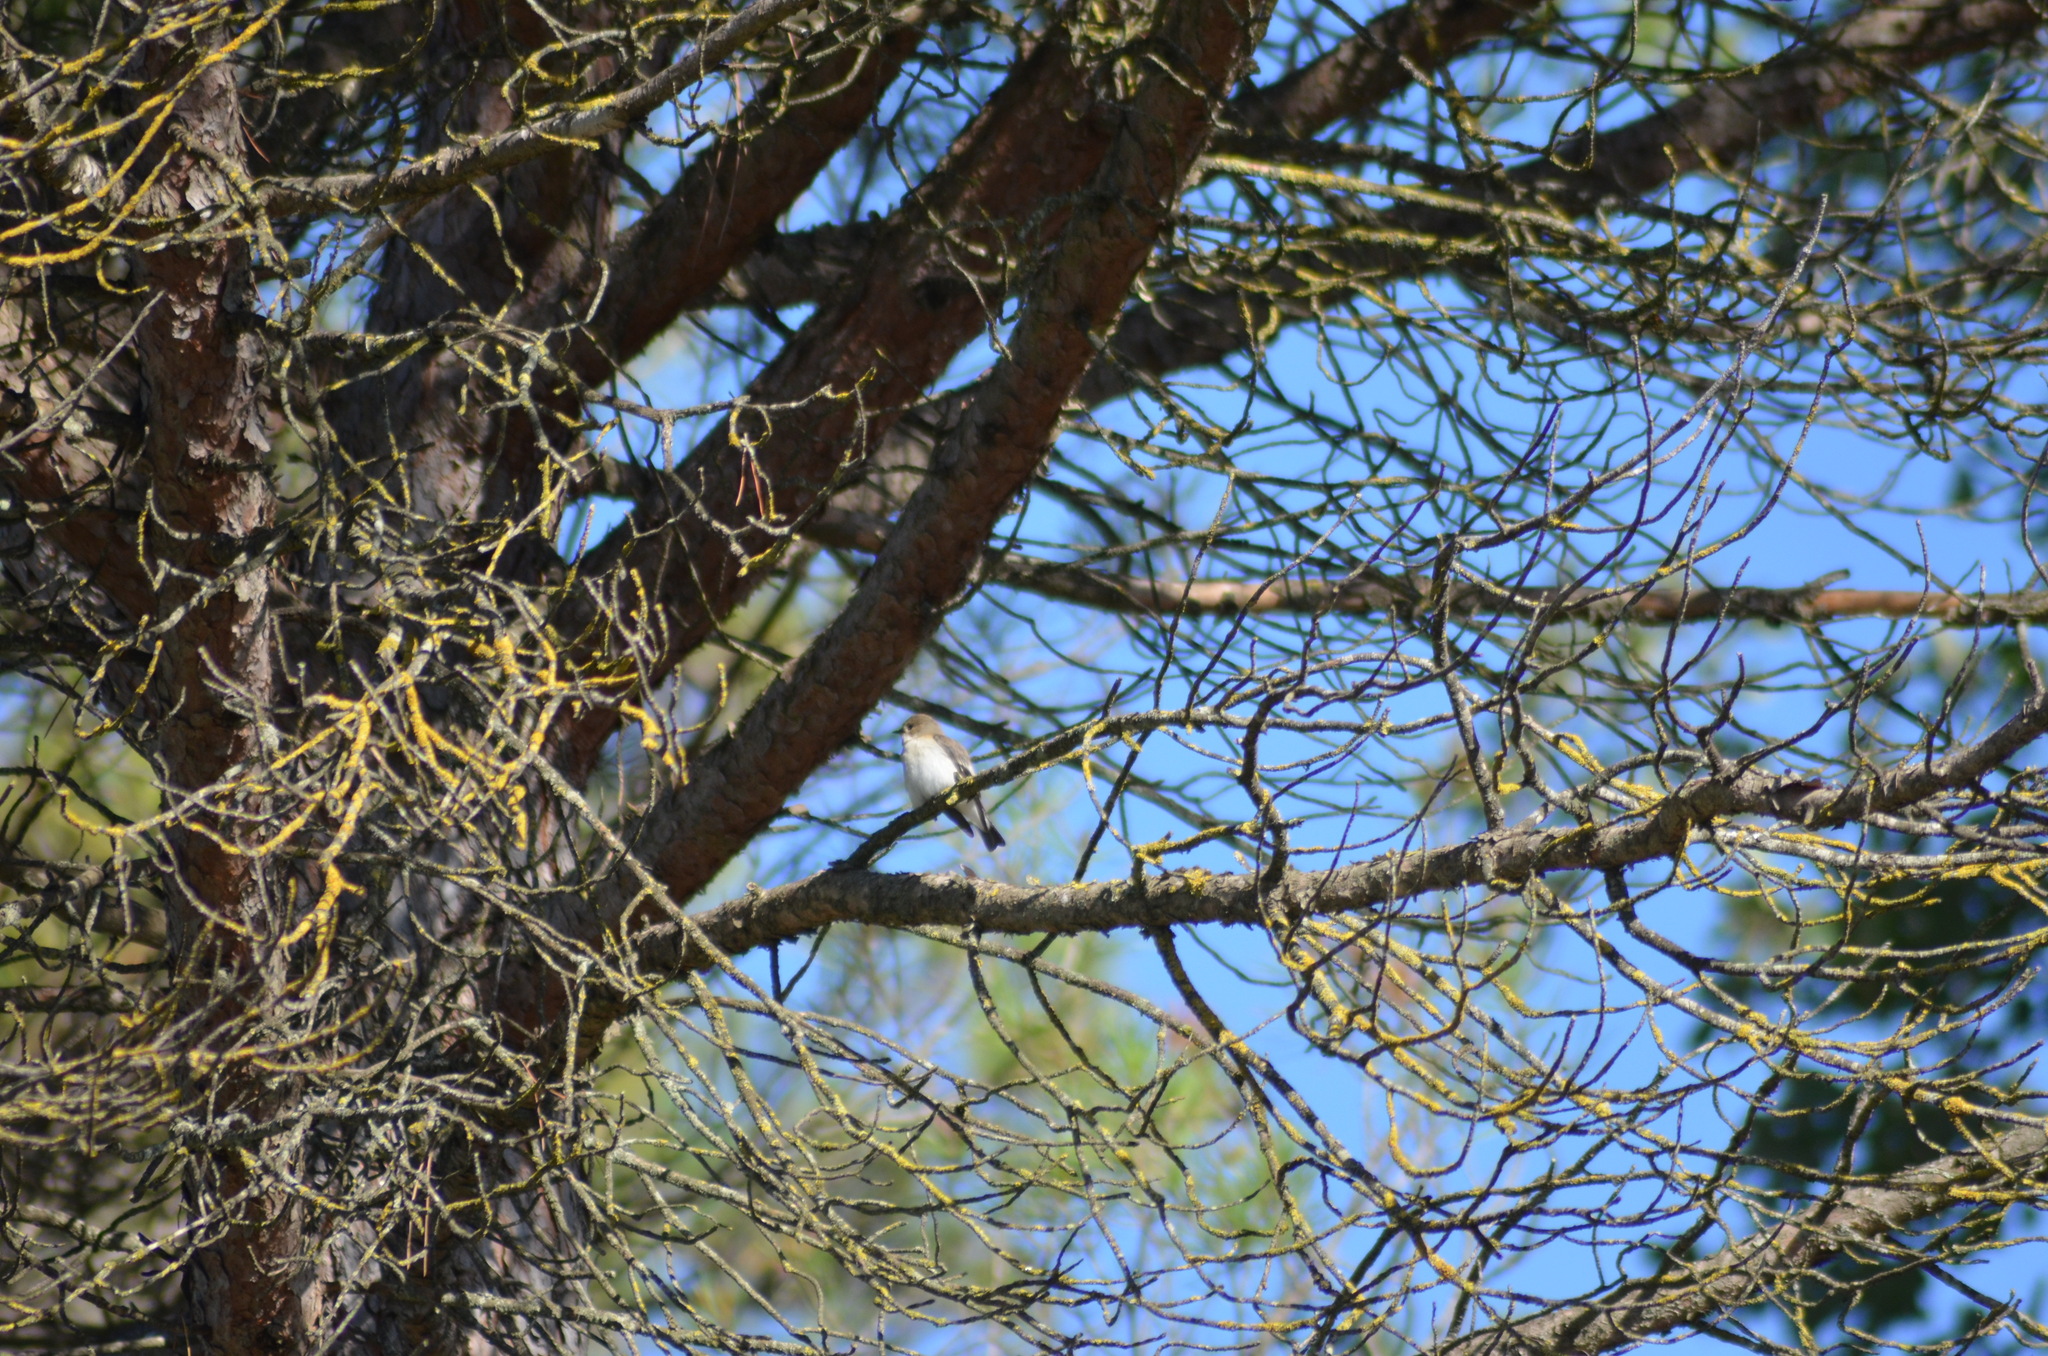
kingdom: Animalia
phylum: Chordata
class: Aves
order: Passeriformes
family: Muscicapidae
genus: Ficedula
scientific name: Ficedula hypoleuca
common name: European pied flycatcher
